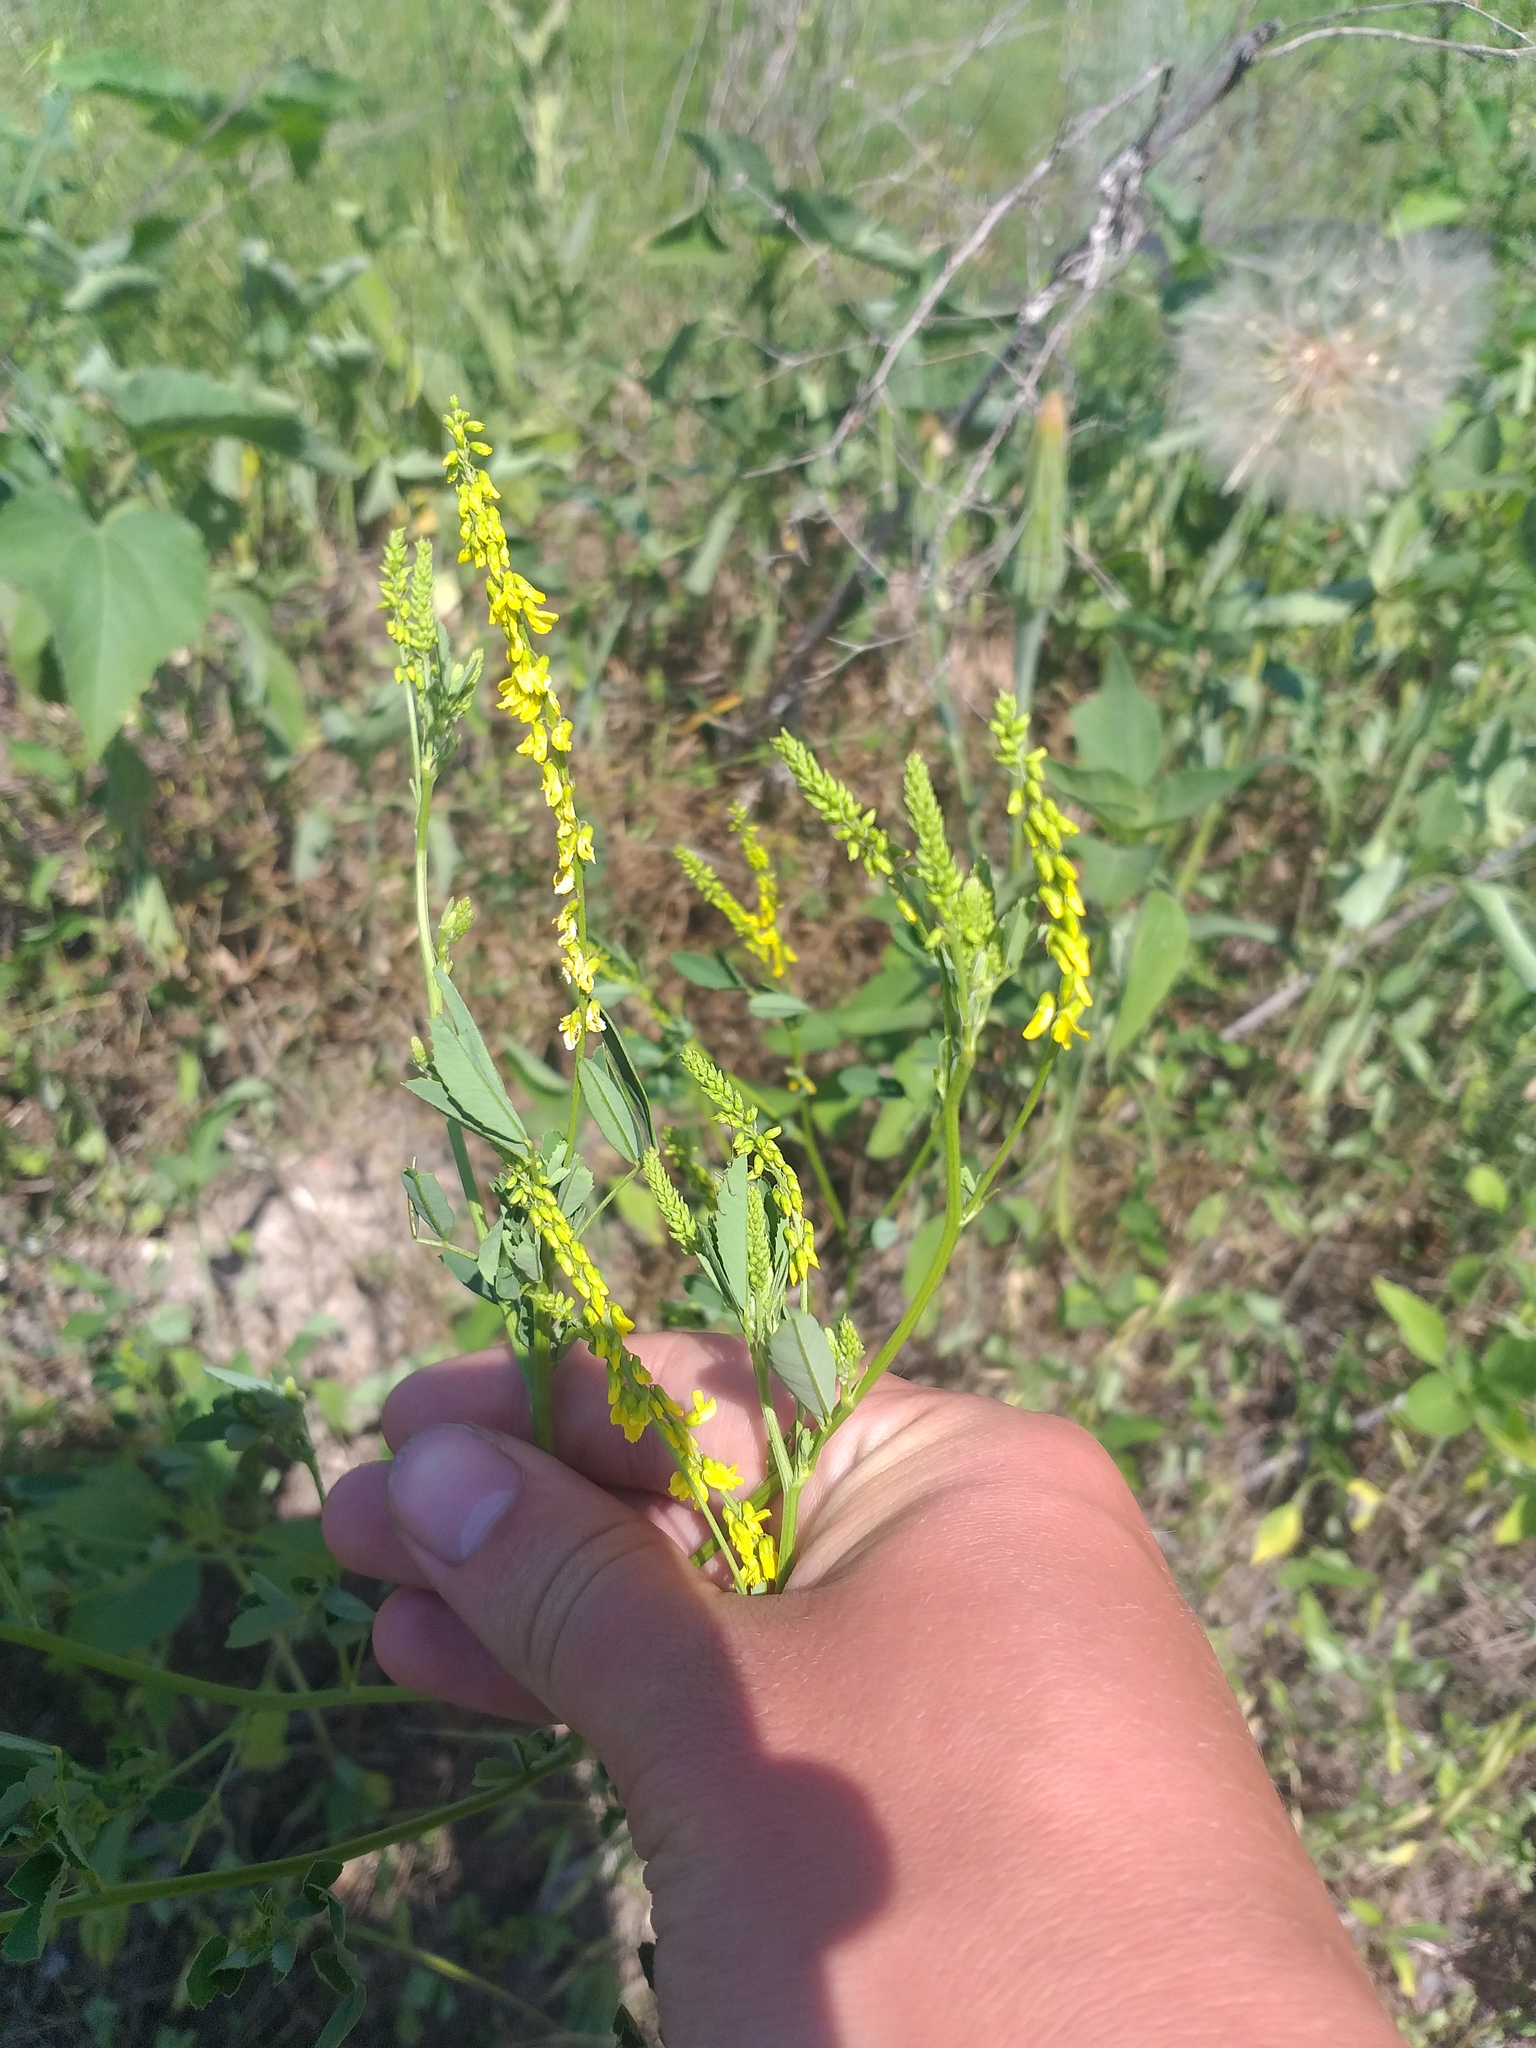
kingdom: Plantae
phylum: Tracheophyta
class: Magnoliopsida
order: Fabales
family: Fabaceae
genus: Melilotus
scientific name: Melilotus officinalis
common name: Sweetclover
